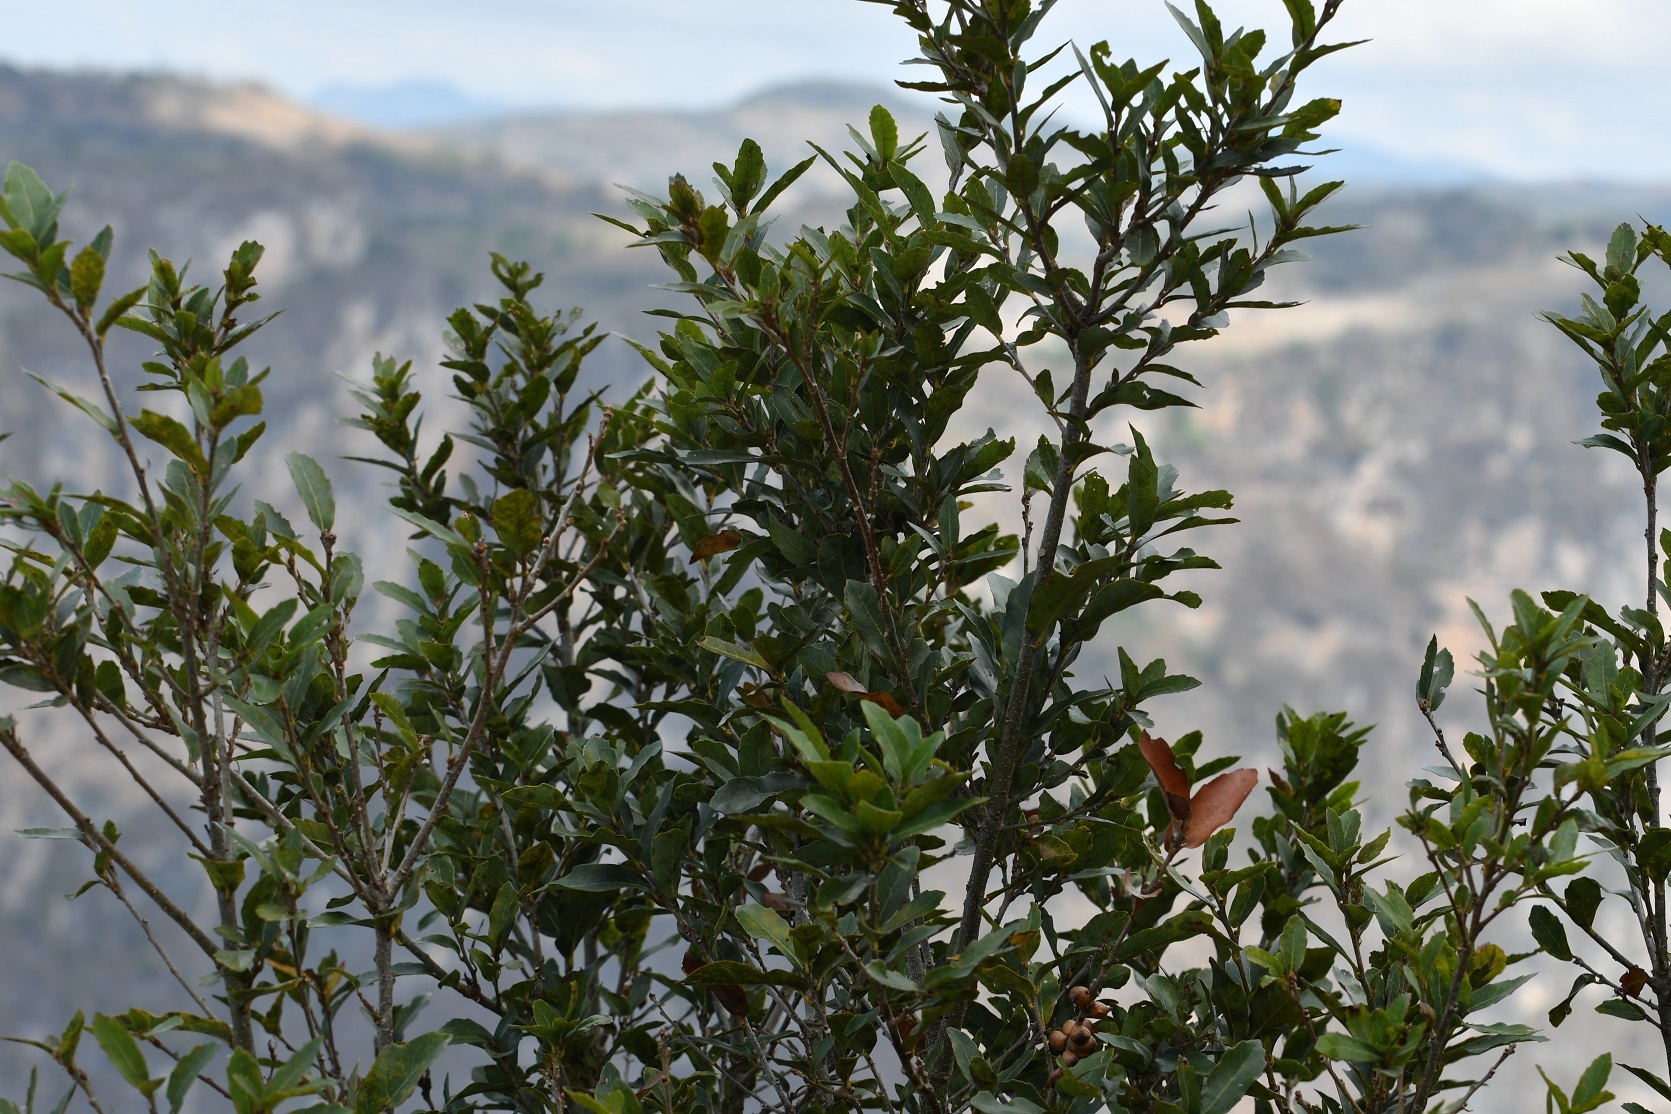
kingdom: Plantae
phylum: Tracheophyta
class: Magnoliopsida
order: Fagales
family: Fagaceae
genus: Quercus
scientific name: Quercus sebifera
